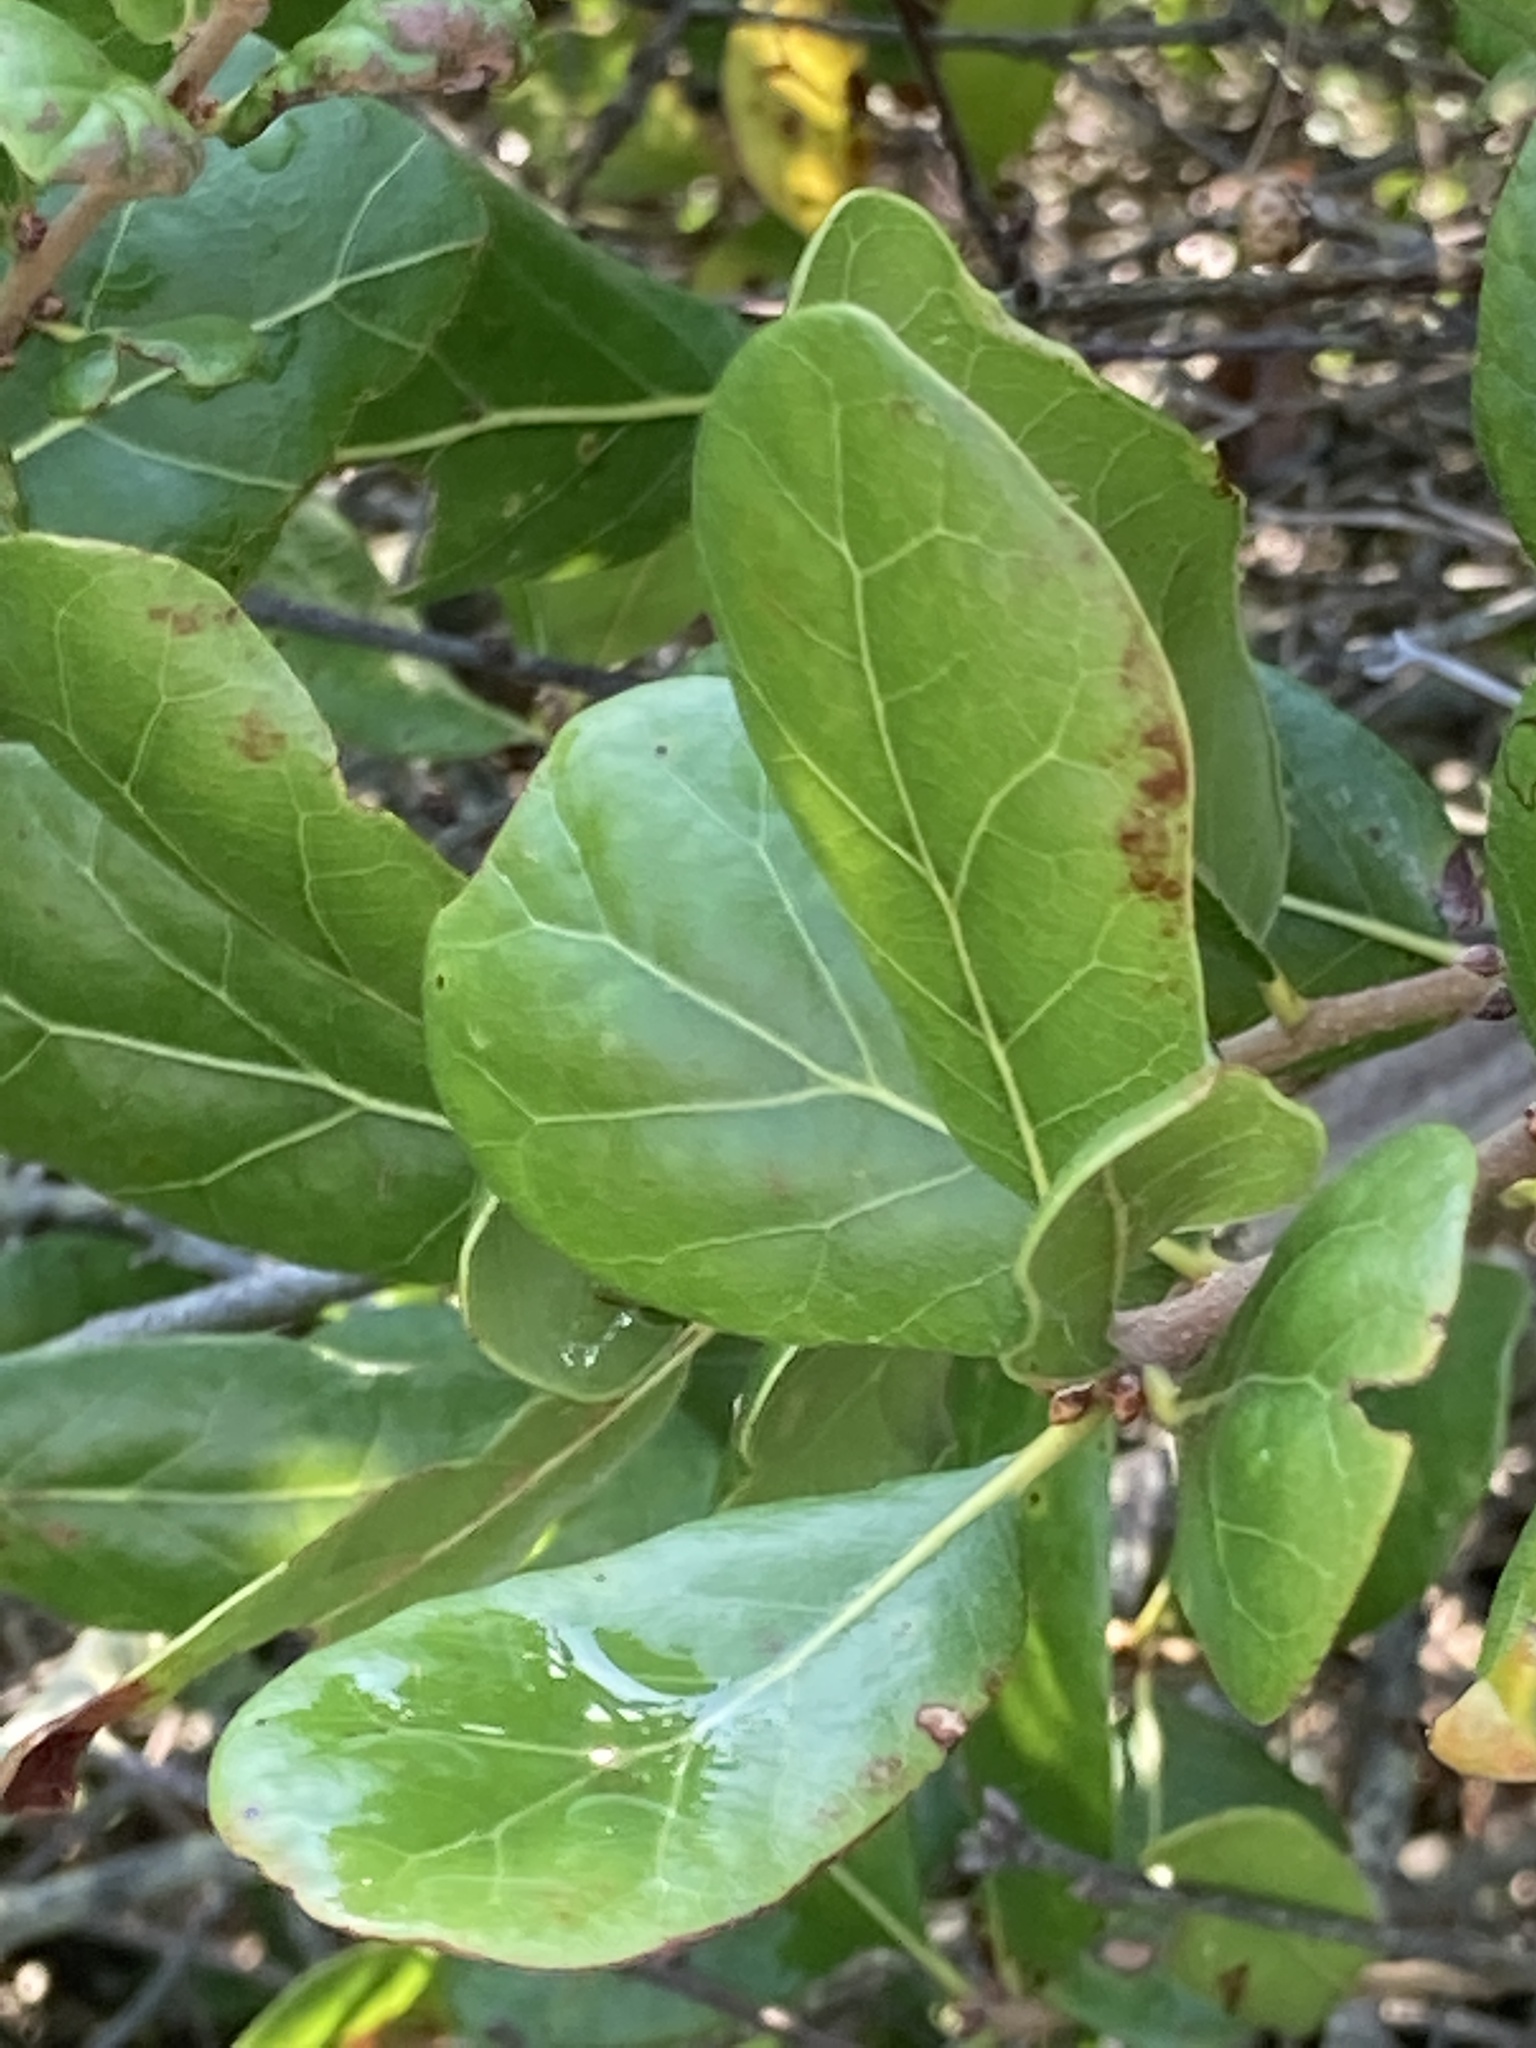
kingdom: Plantae
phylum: Tracheophyta
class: Magnoliopsida
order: Fagales
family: Fagaceae
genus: Quercus
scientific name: Quercus myrtifolia
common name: Myrtle oak
